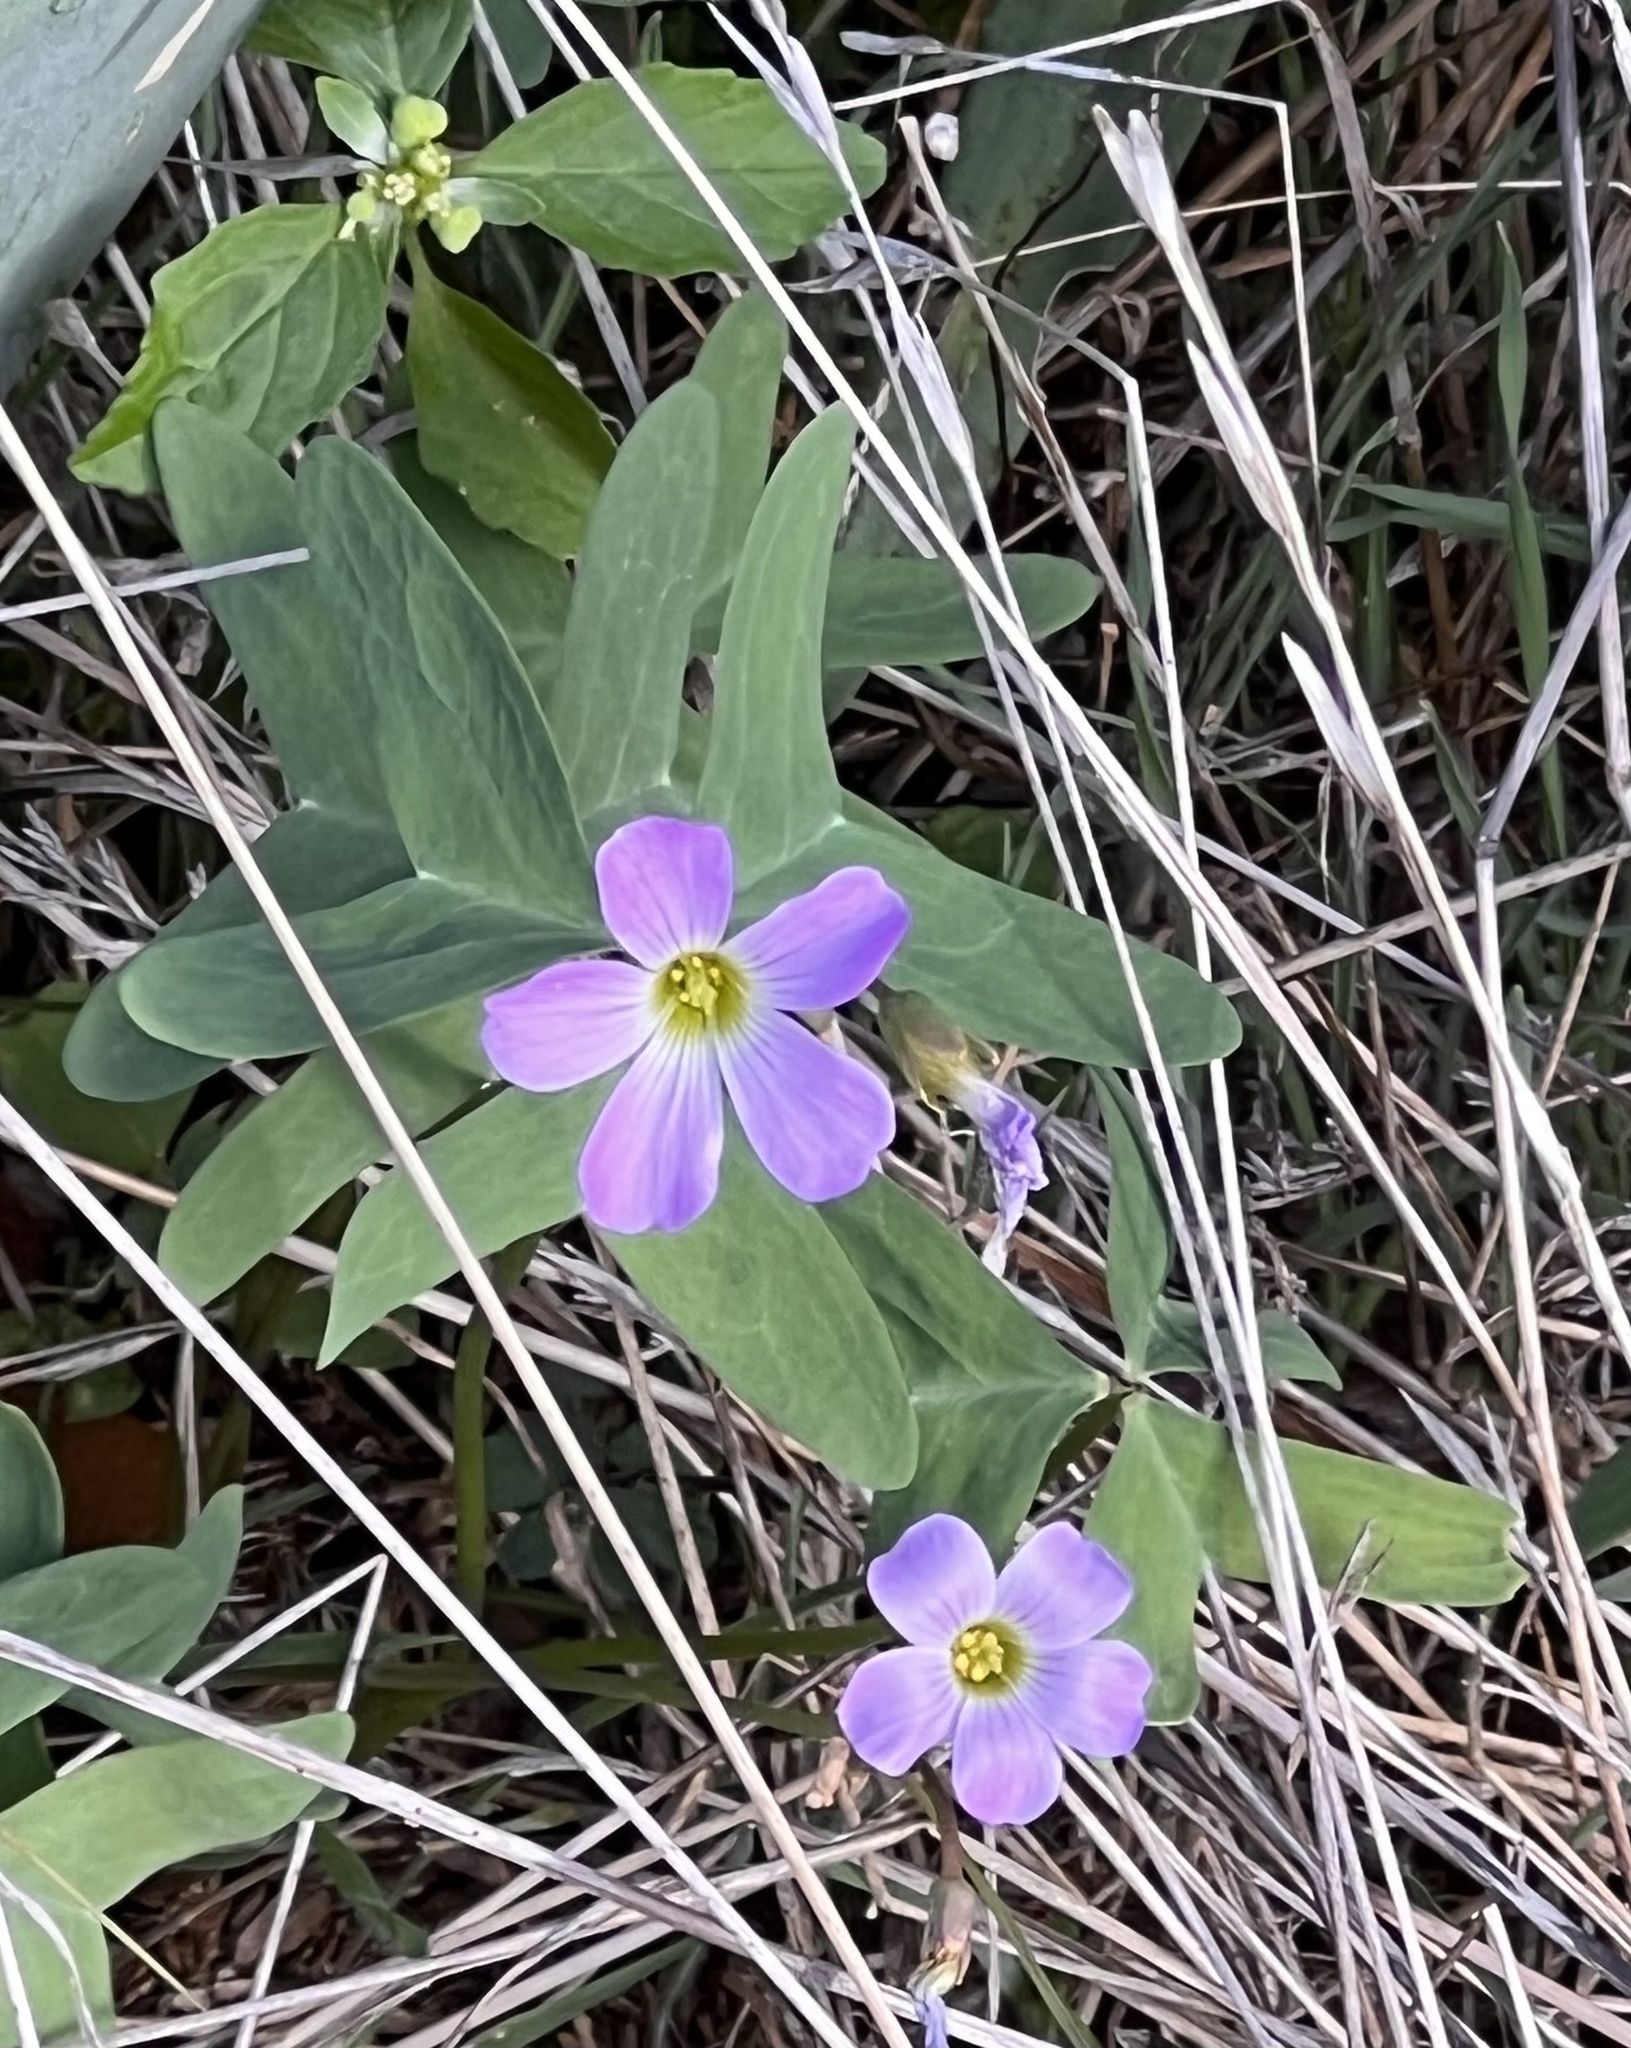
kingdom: Plantae
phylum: Tracheophyta
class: Magnoliopsida
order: Oxalidales
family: Oxalidaceae
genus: Oxalis
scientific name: Oxalis drummondii
